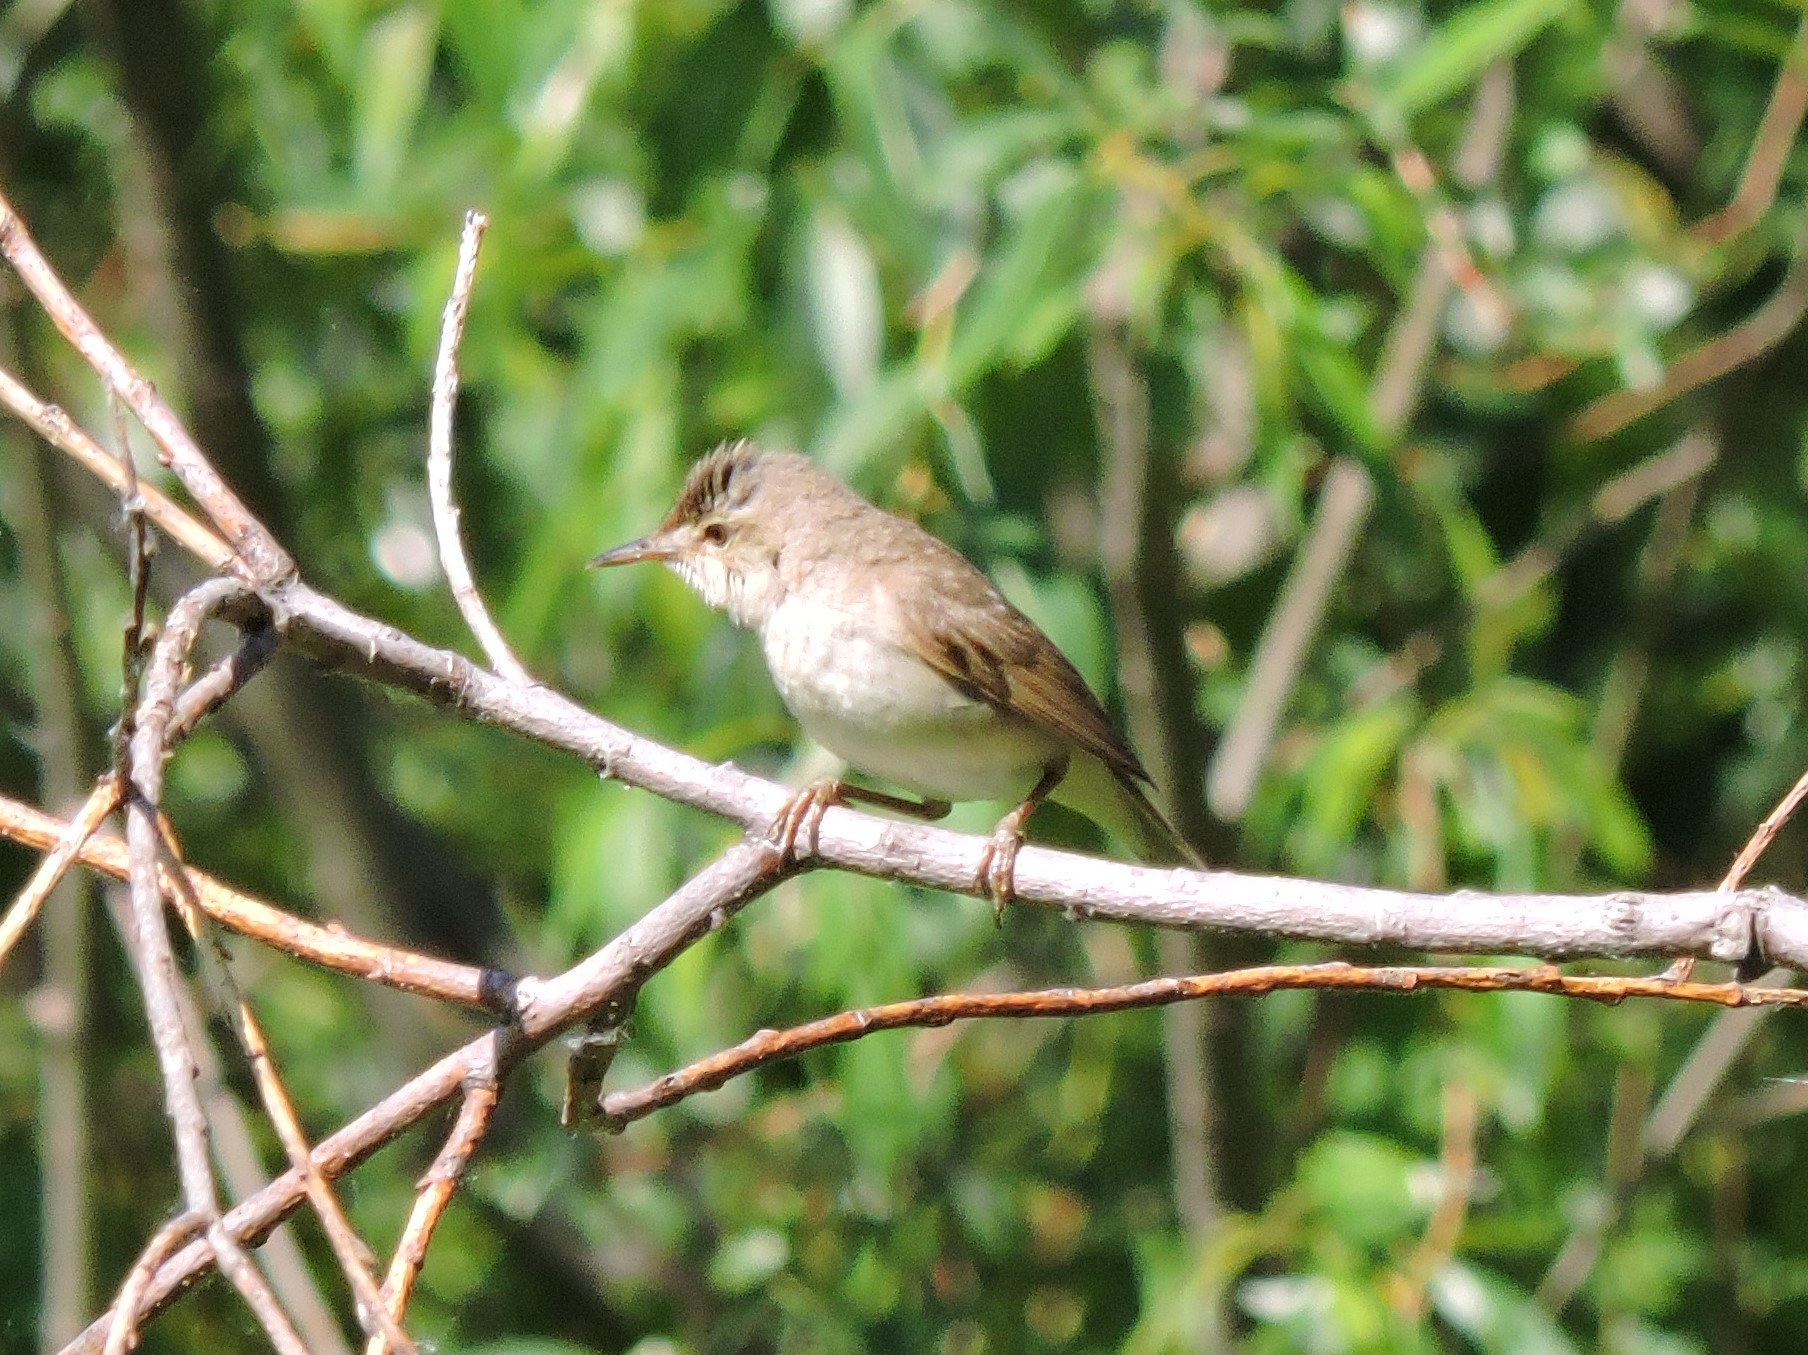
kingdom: Animalia
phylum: Chordata
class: Aves
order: Passeriformes
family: Acrocephalidae
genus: Acrocephalus
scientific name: Acrocephalus dumetorum
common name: Blyth's reed warbler
